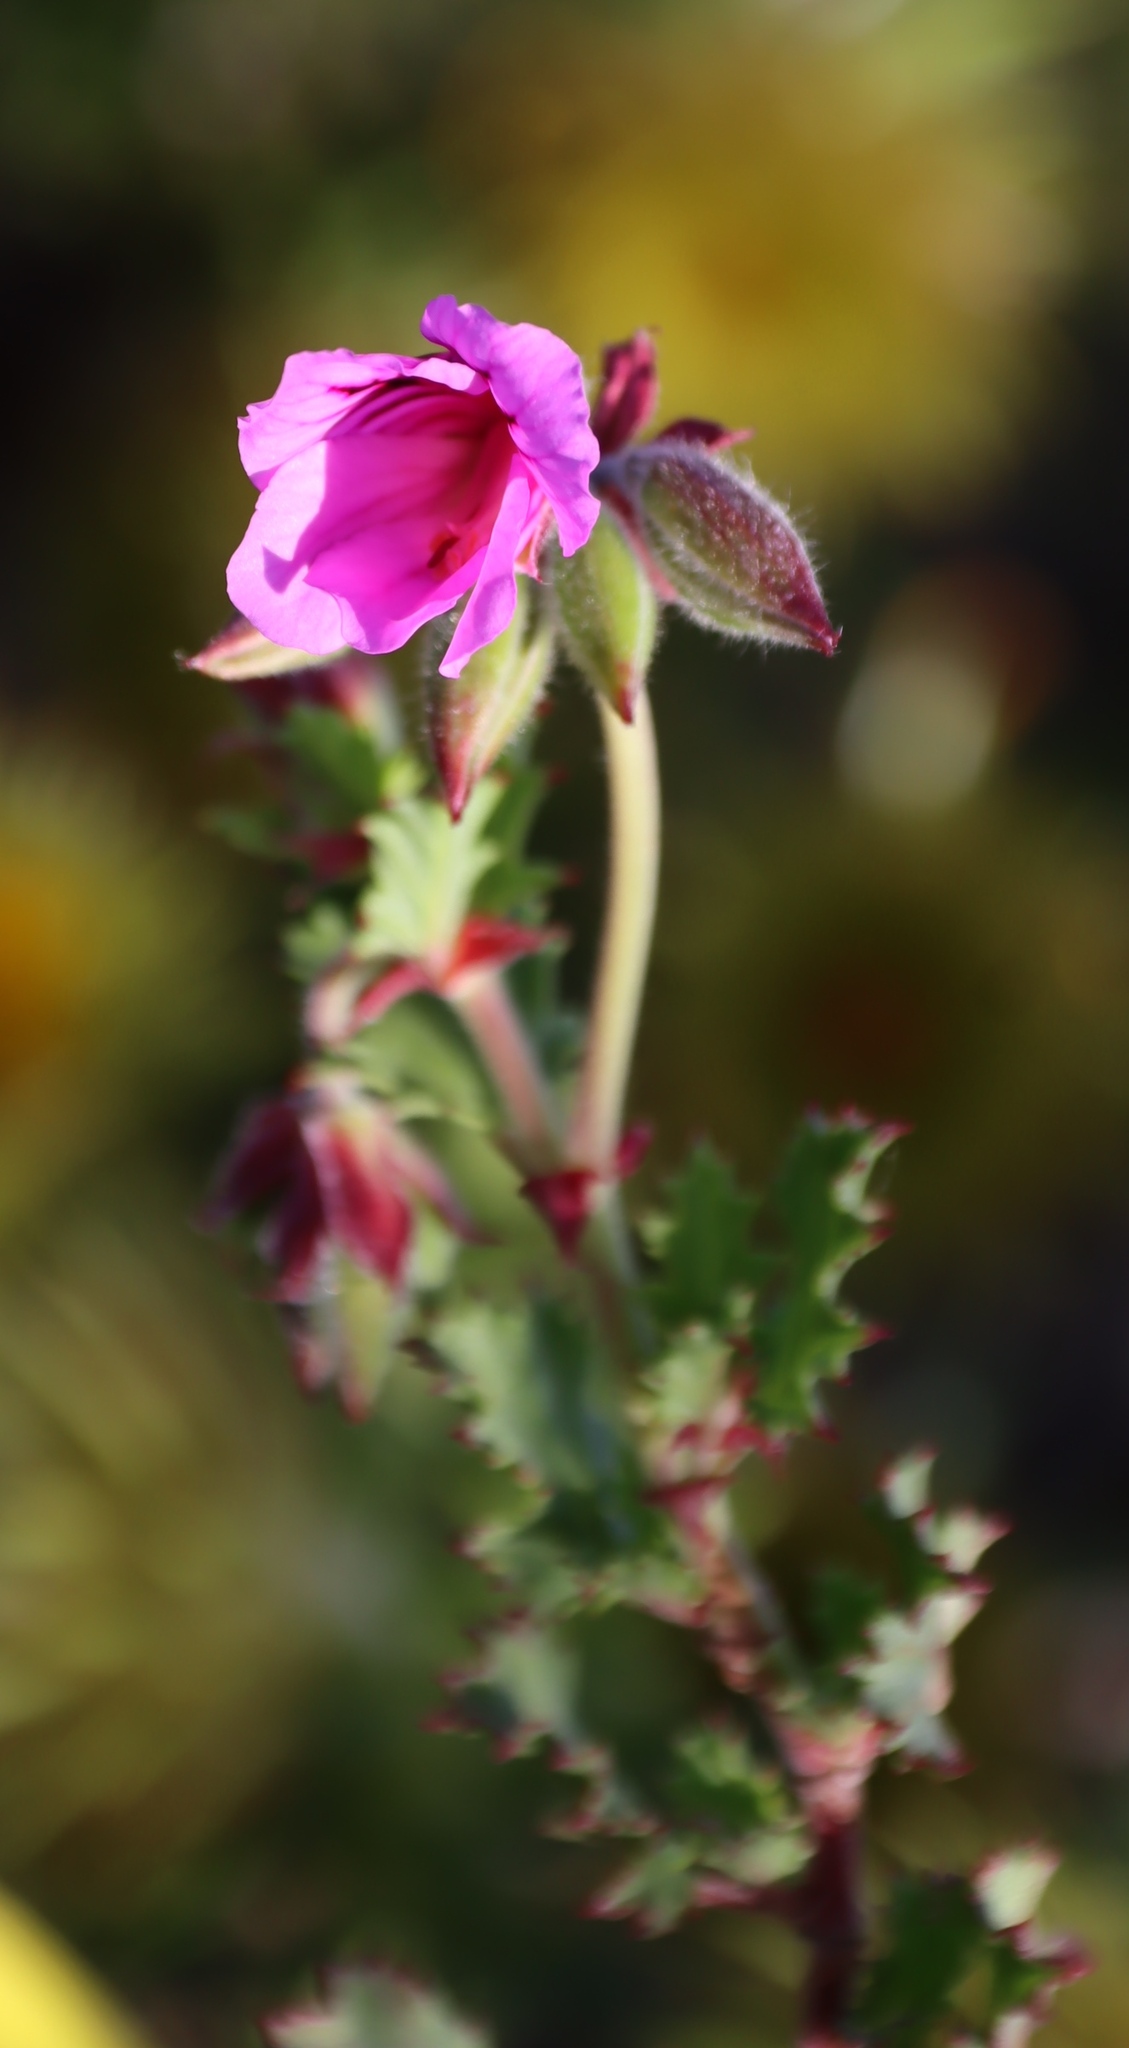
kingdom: Plantae
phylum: Tracheophyta
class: Magnoliopsida
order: Geraniales
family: Geraniaceae
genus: Pelargonium
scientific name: Pelargonium betulinum
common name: Birch-leaf pelargonium
